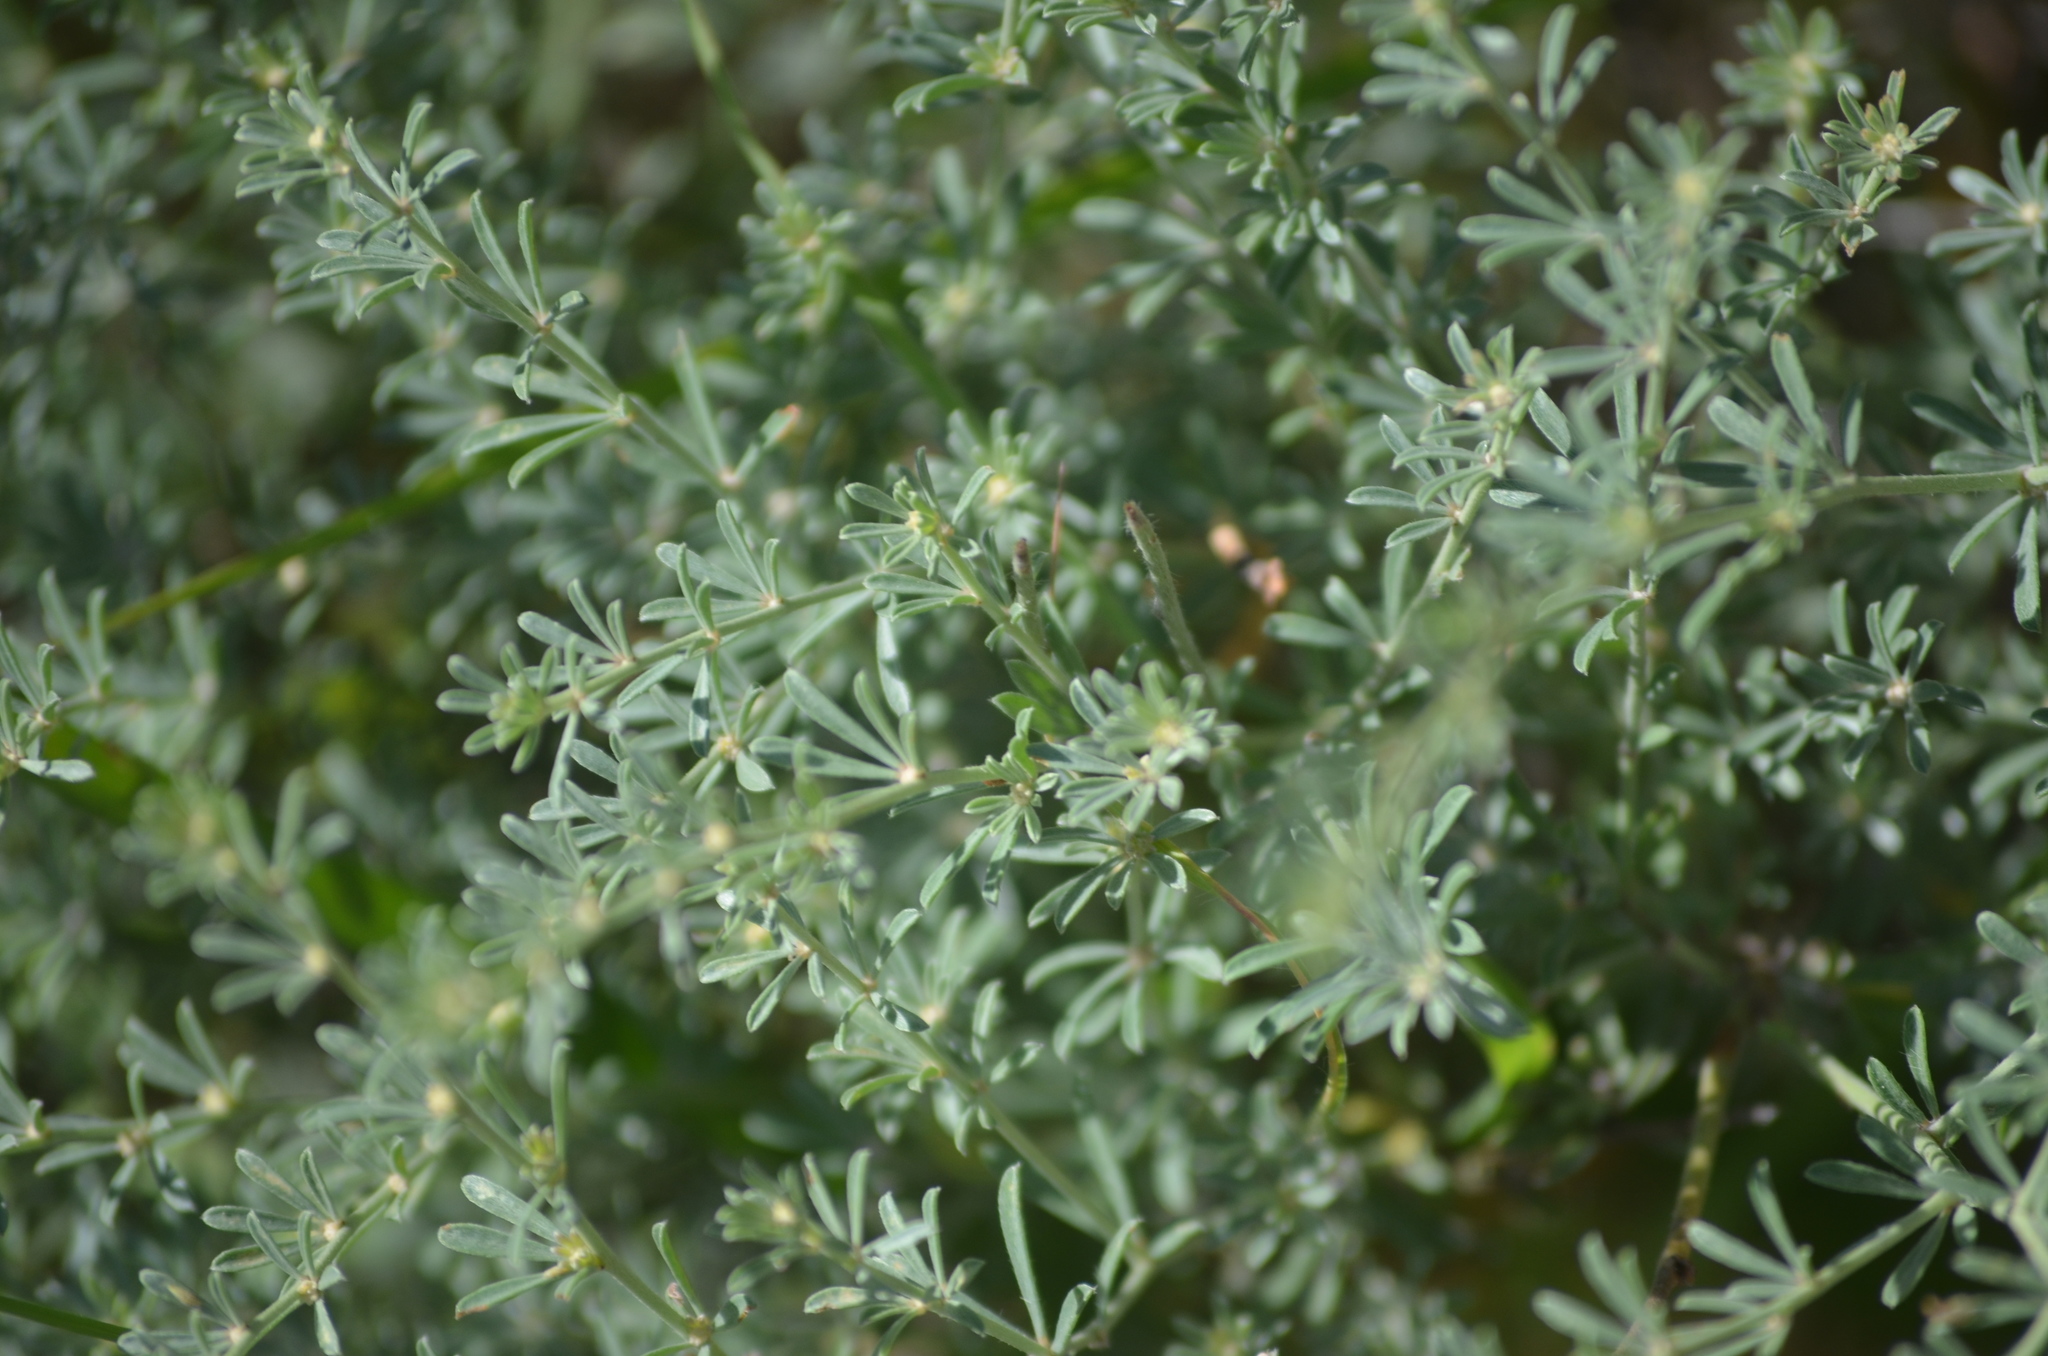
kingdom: Plantae
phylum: Tracheophyta
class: Magnoliopsida
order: Fabales
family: Fabaceae
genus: Lotus
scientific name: Lotus dorycnium
